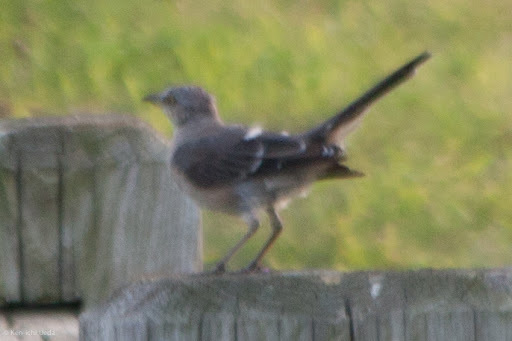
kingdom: Animalia
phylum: Chordata
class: Aves
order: Passeriformes
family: Mimidae
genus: Mimus
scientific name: Mimus polyglottos
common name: Northern mockingbird
